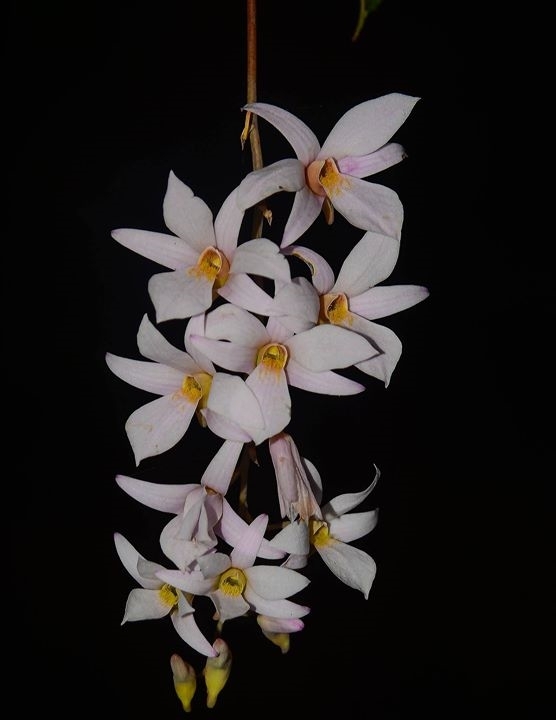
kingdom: Plantae
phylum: Tracheophyta
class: Liliopsida
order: Asparagales
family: Orchidaceae
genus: Dendrobium
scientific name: Dendrobium barbatulum
